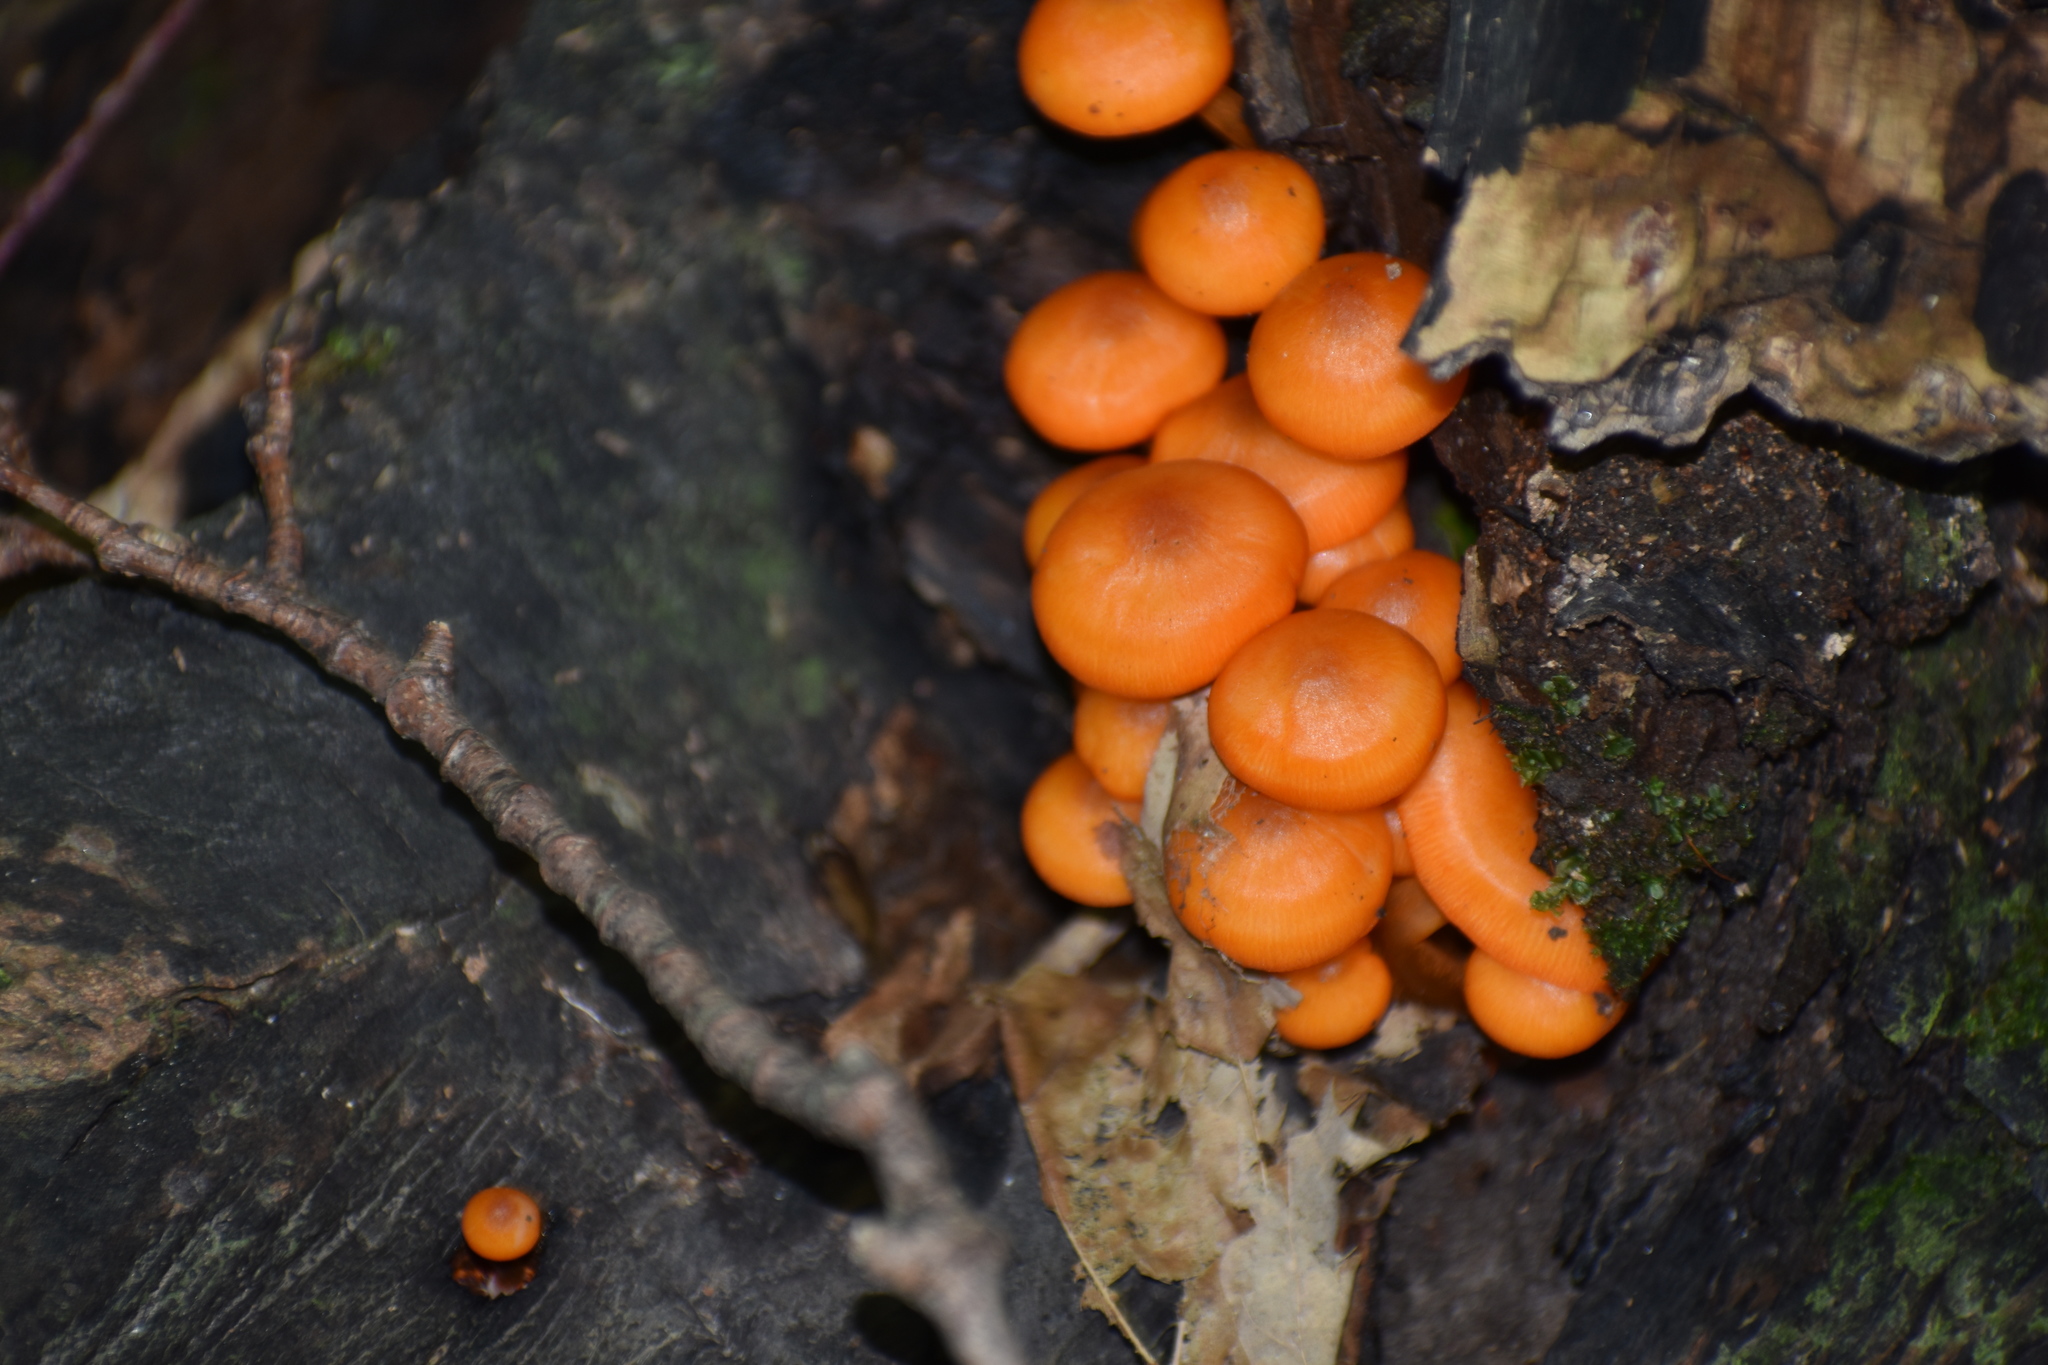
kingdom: Fungi
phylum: Basidiomycota
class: Agaricomycetes
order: Agaricales
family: Mycenaceae
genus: Mycena
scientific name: Mycena leaiana
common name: Orange mycena
